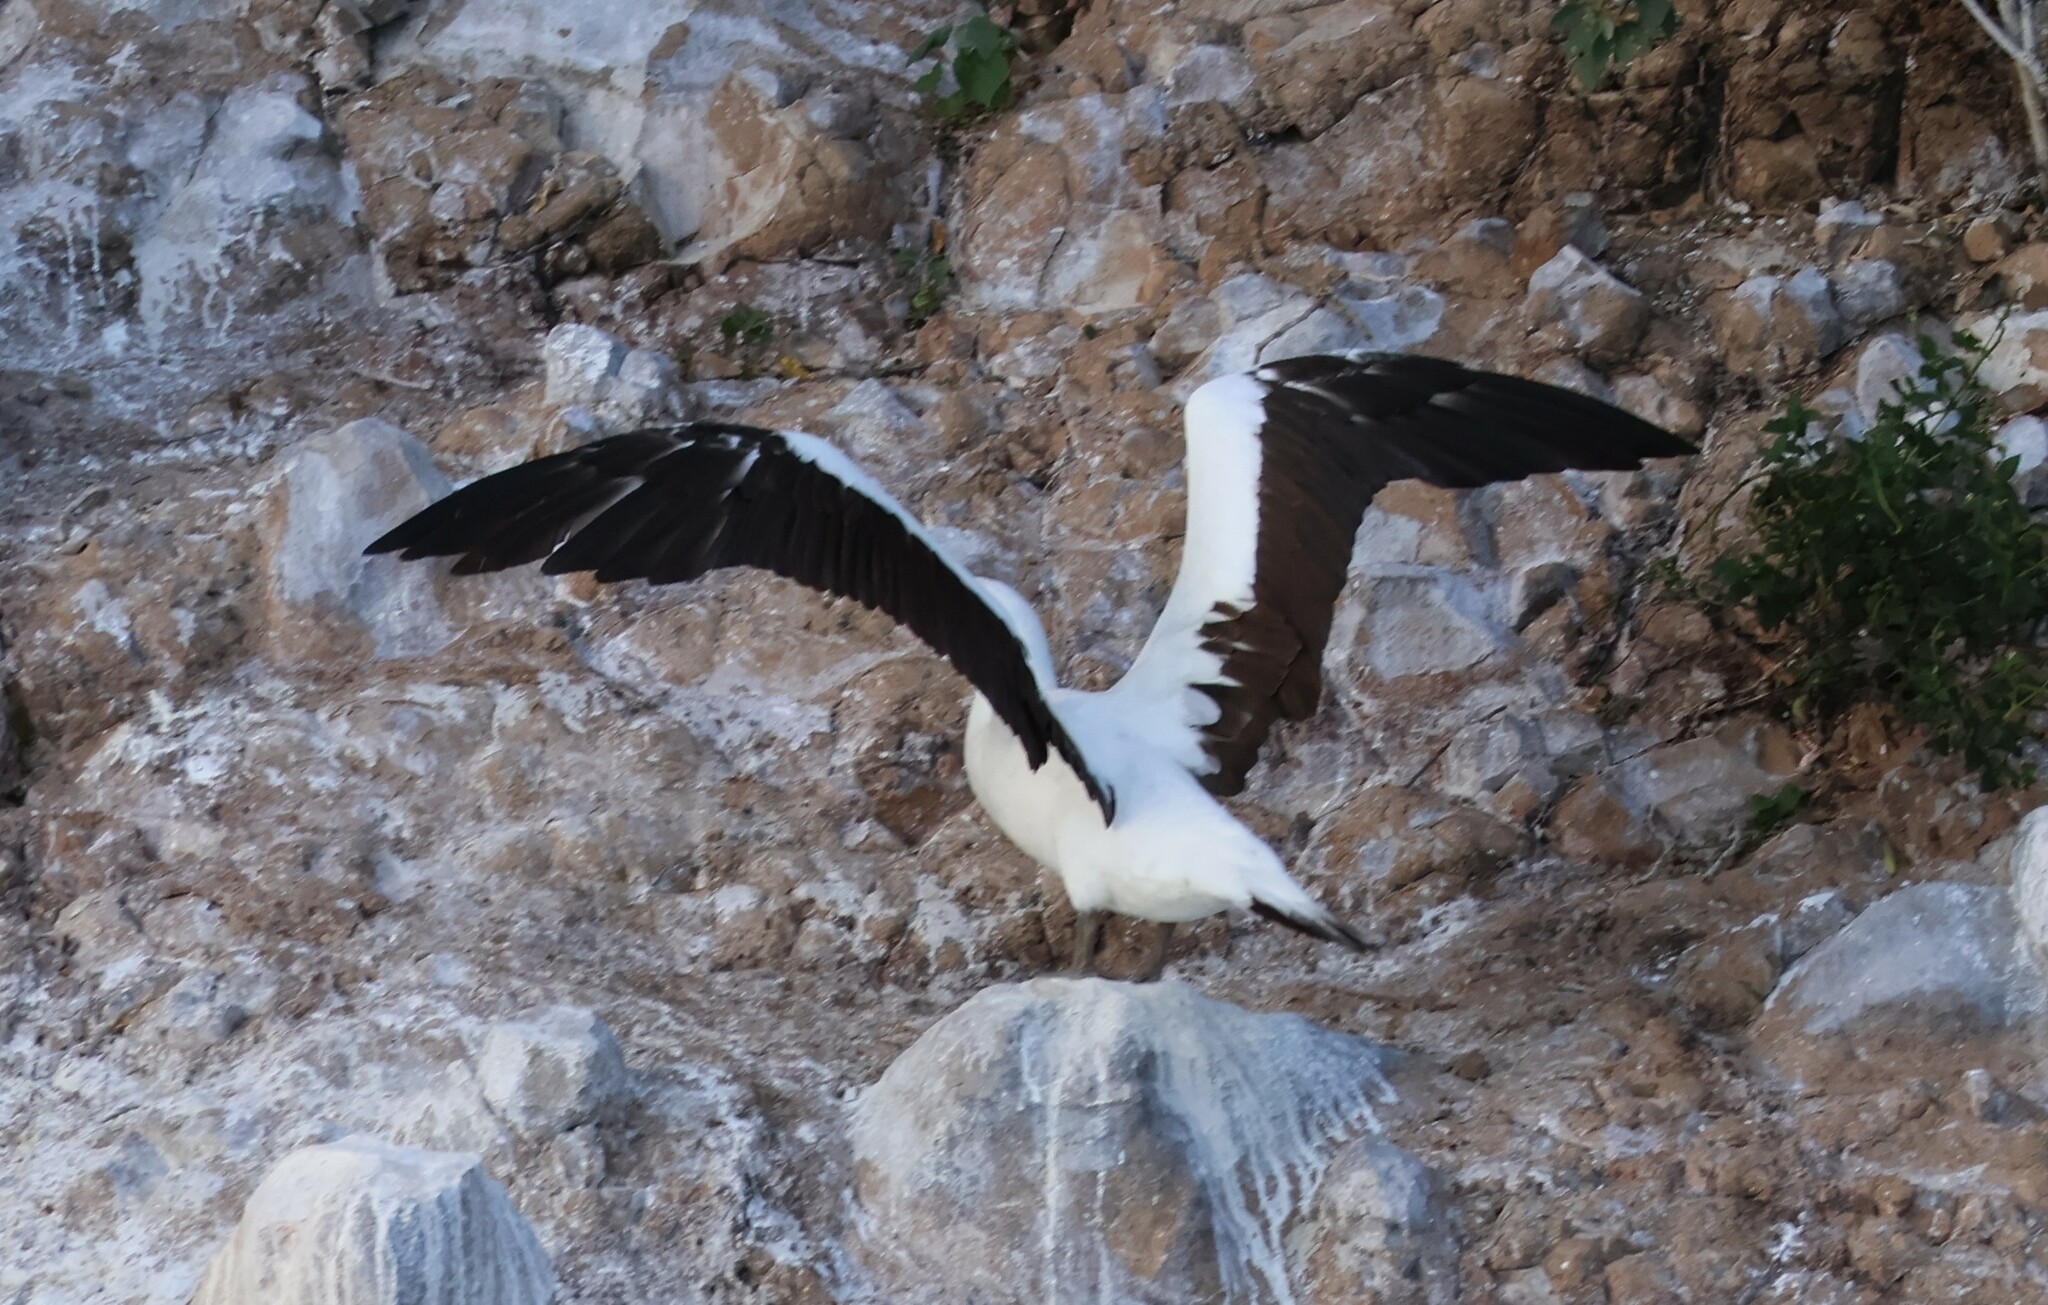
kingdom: Animalia
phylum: Chordata
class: Aves
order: Suliformes
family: Sulidae
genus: Sula
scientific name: Sula granti
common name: Nazca booby
